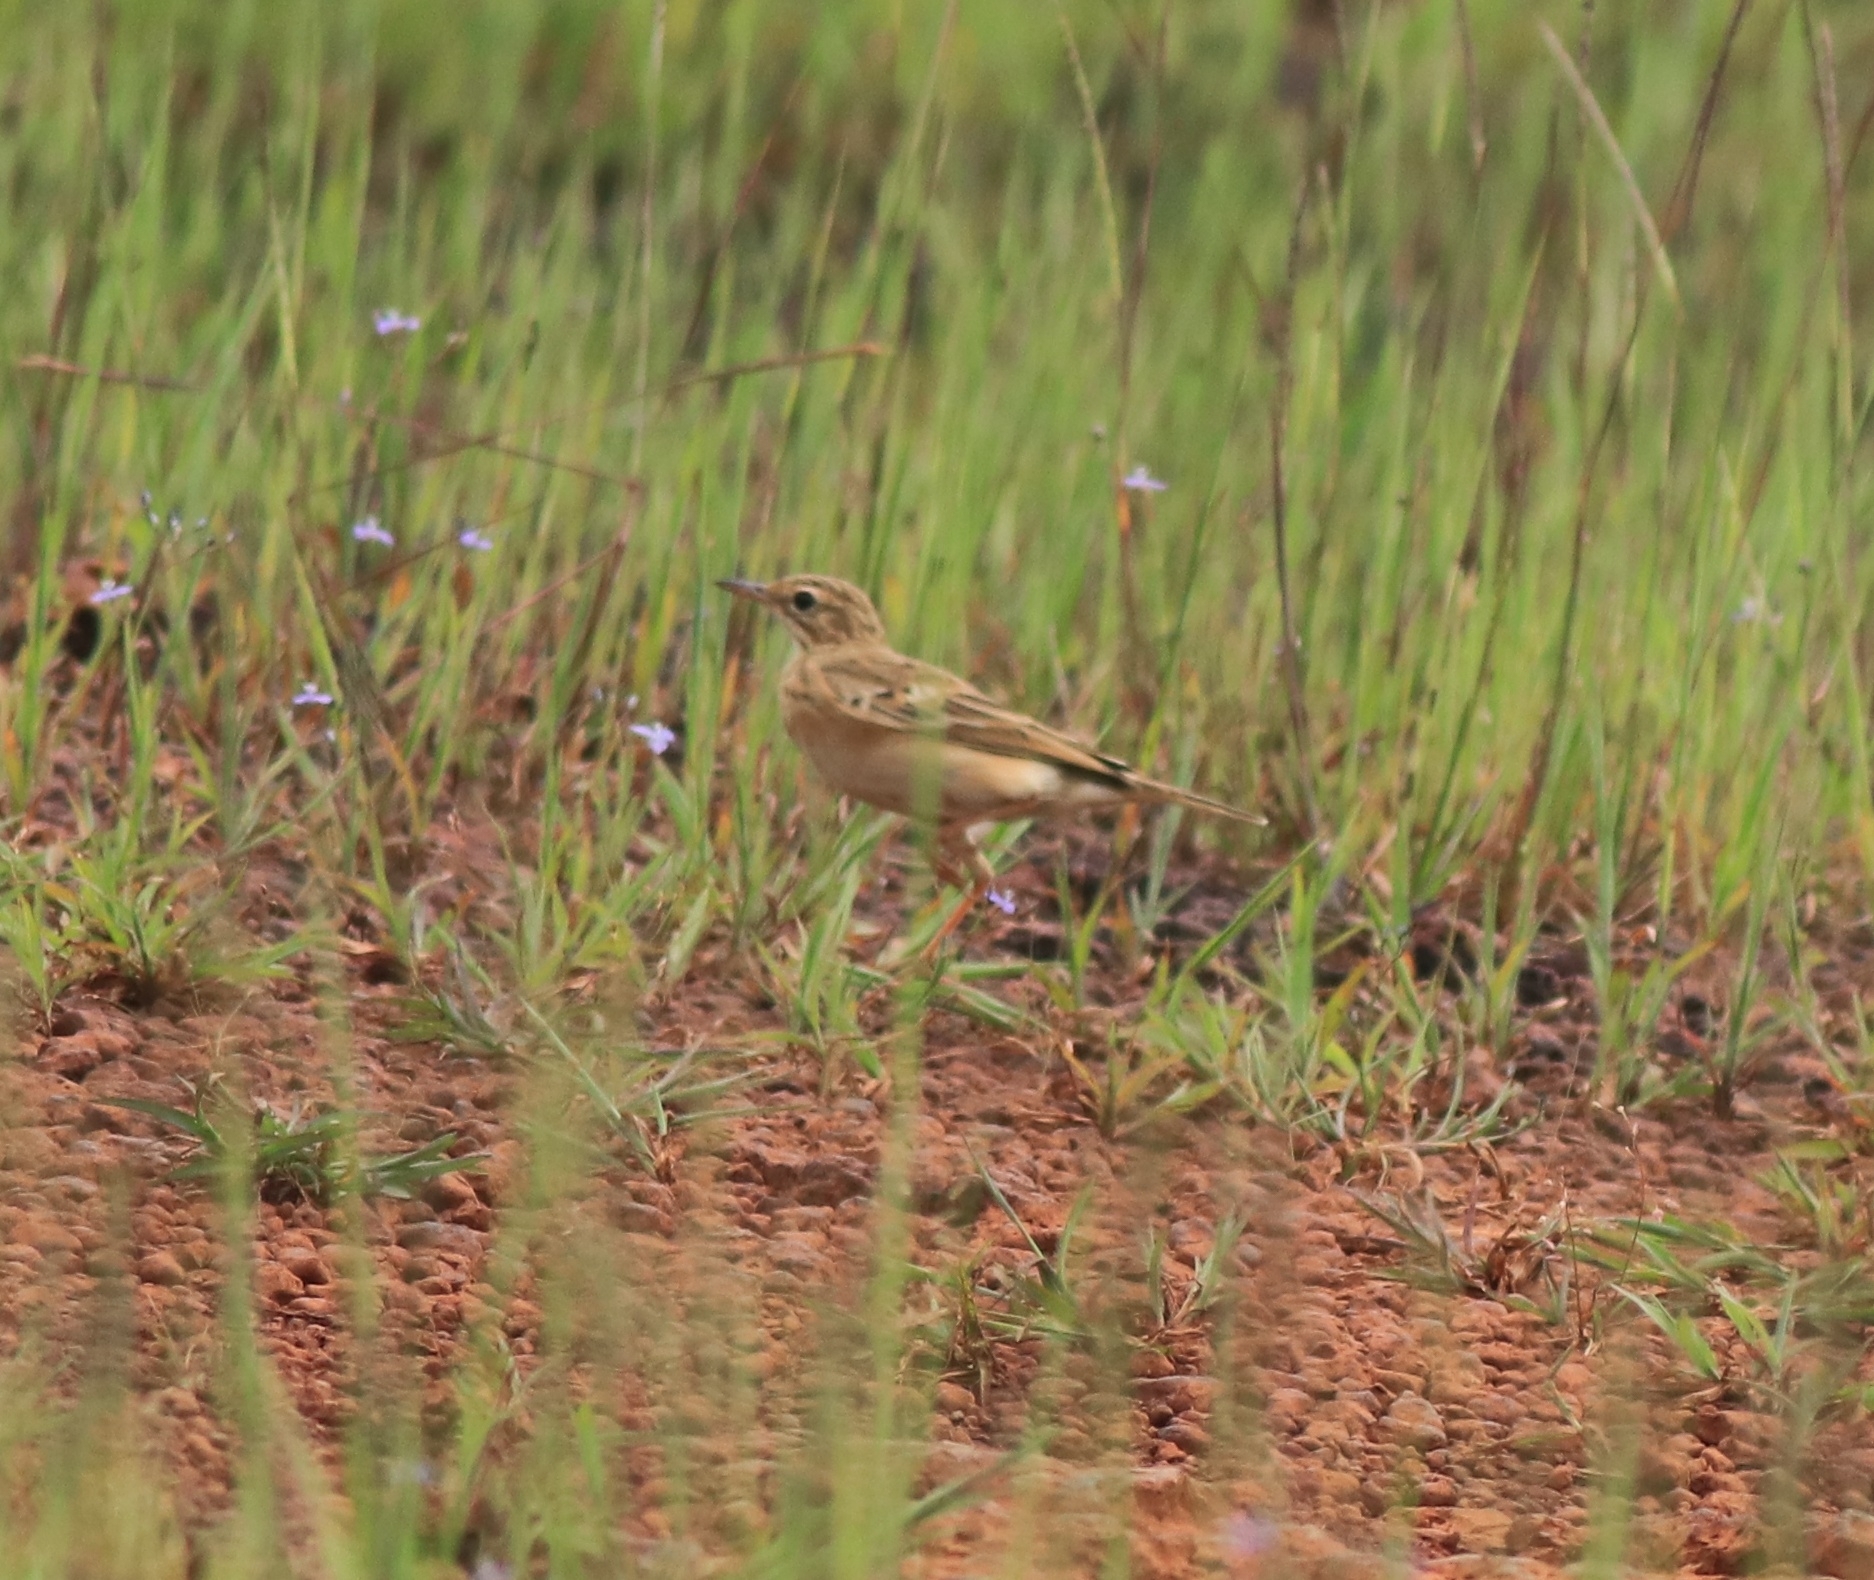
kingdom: Animalia
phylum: Chordata
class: Aves
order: Passeriformes
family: Motacillidae
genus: Anthus
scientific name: Anthus rufulus
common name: Paddyfield pipit
